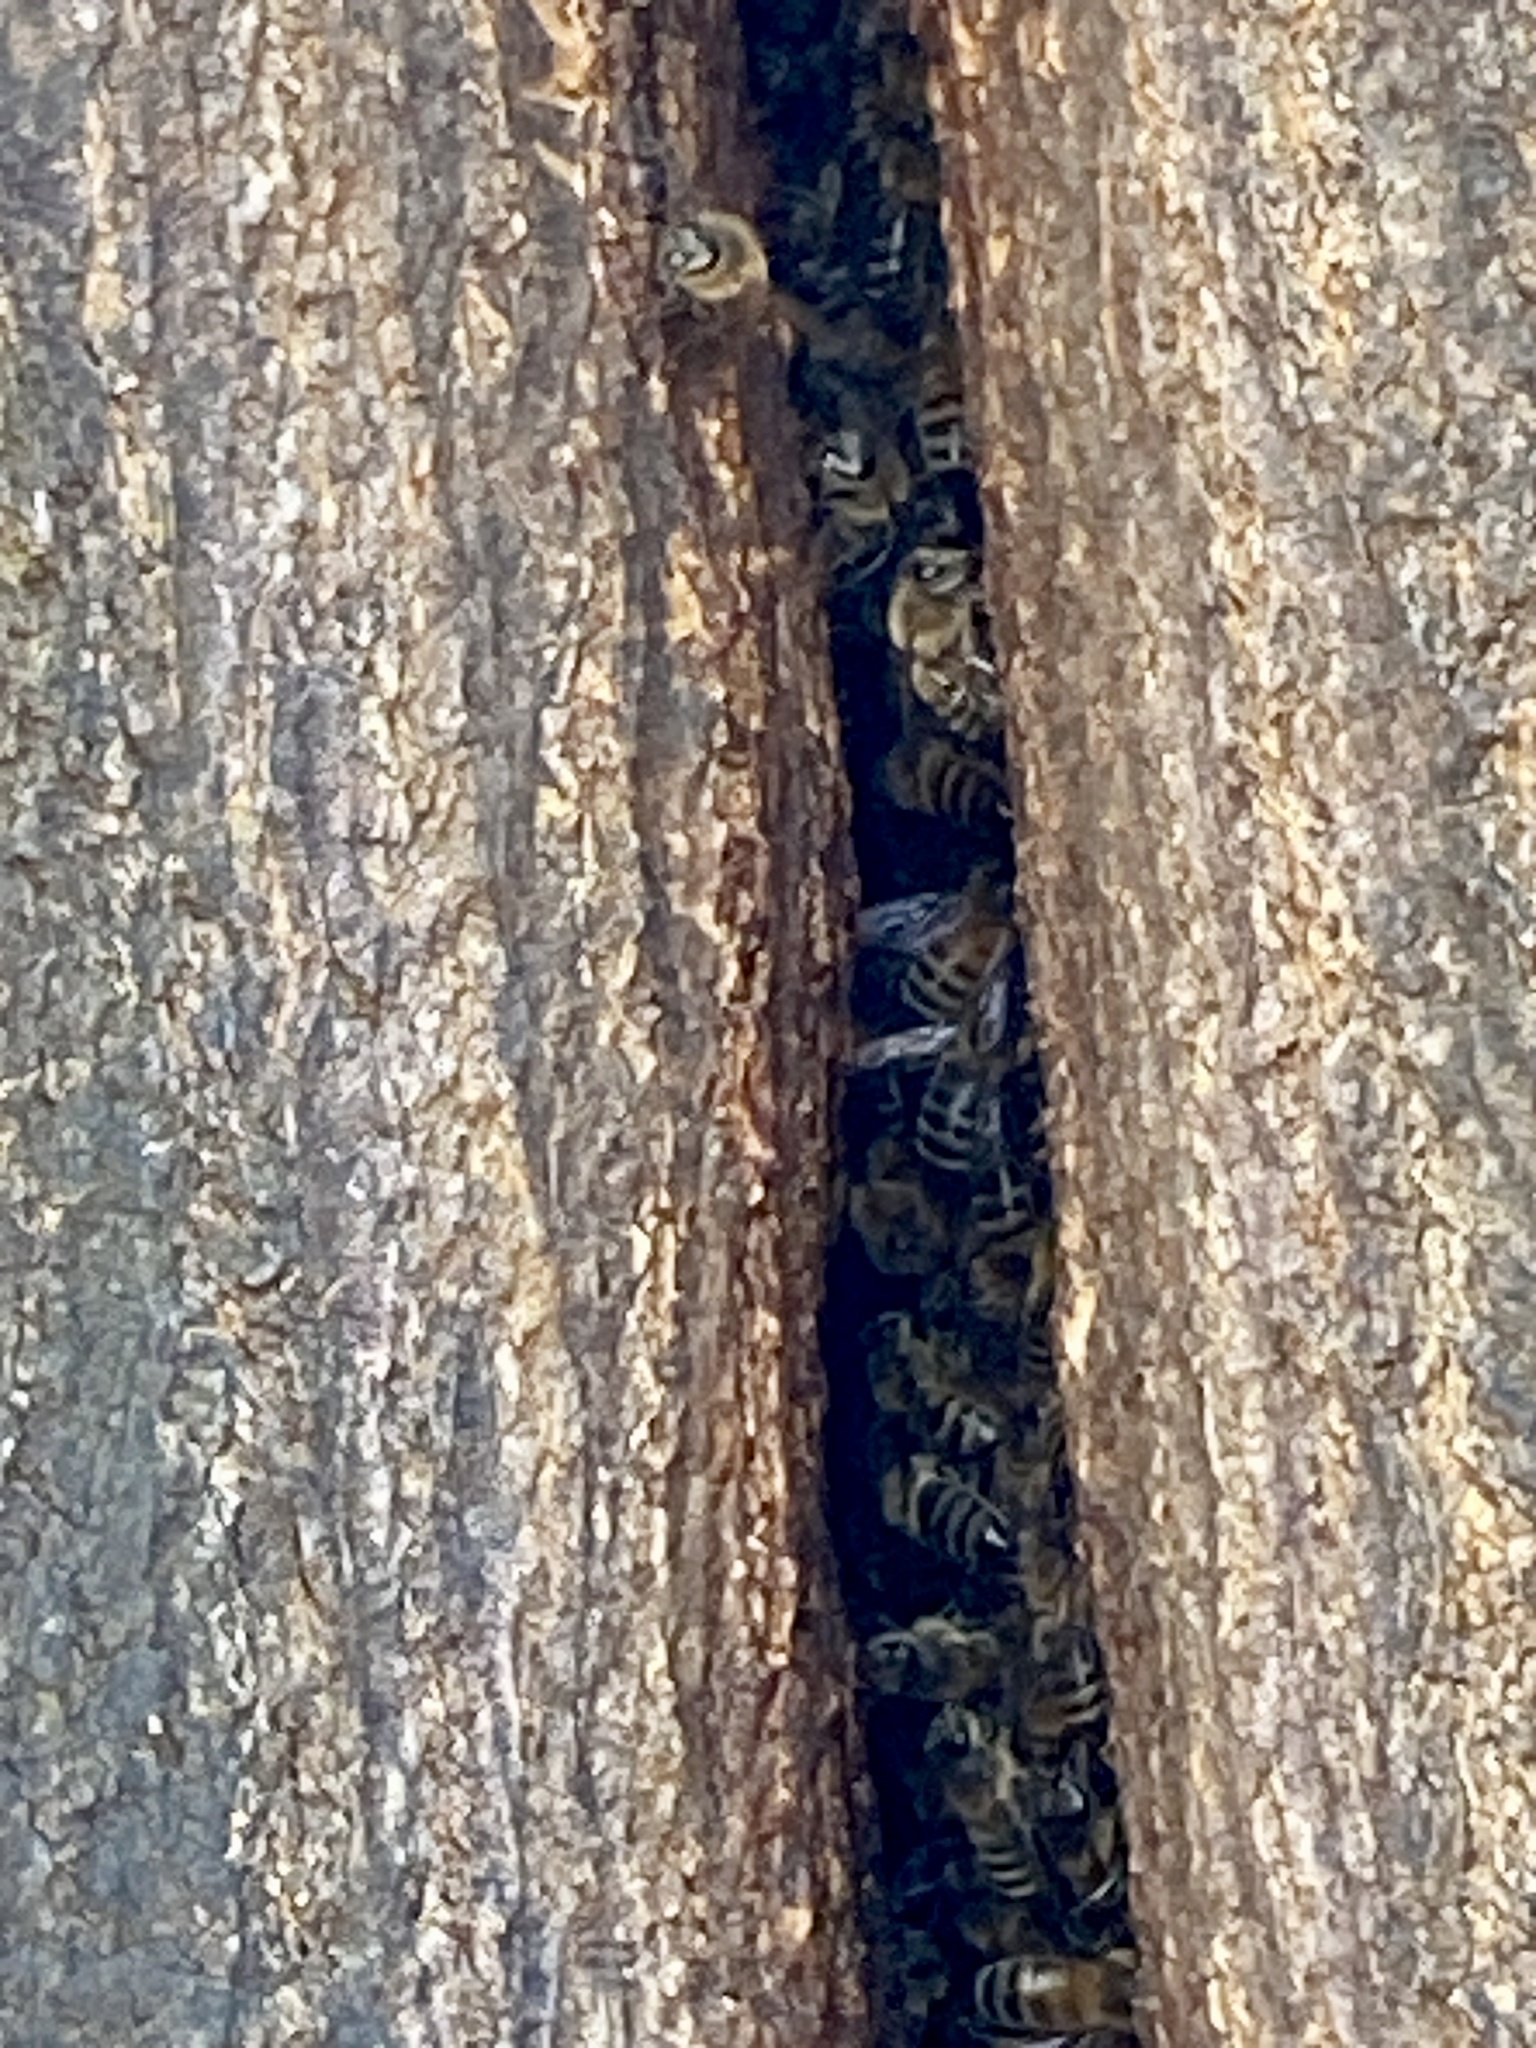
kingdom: Animalia
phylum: Arthropoda
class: Insecta
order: Hymenoptera
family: Apidae
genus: Apis
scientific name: Apis mellifera
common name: Honey bee
